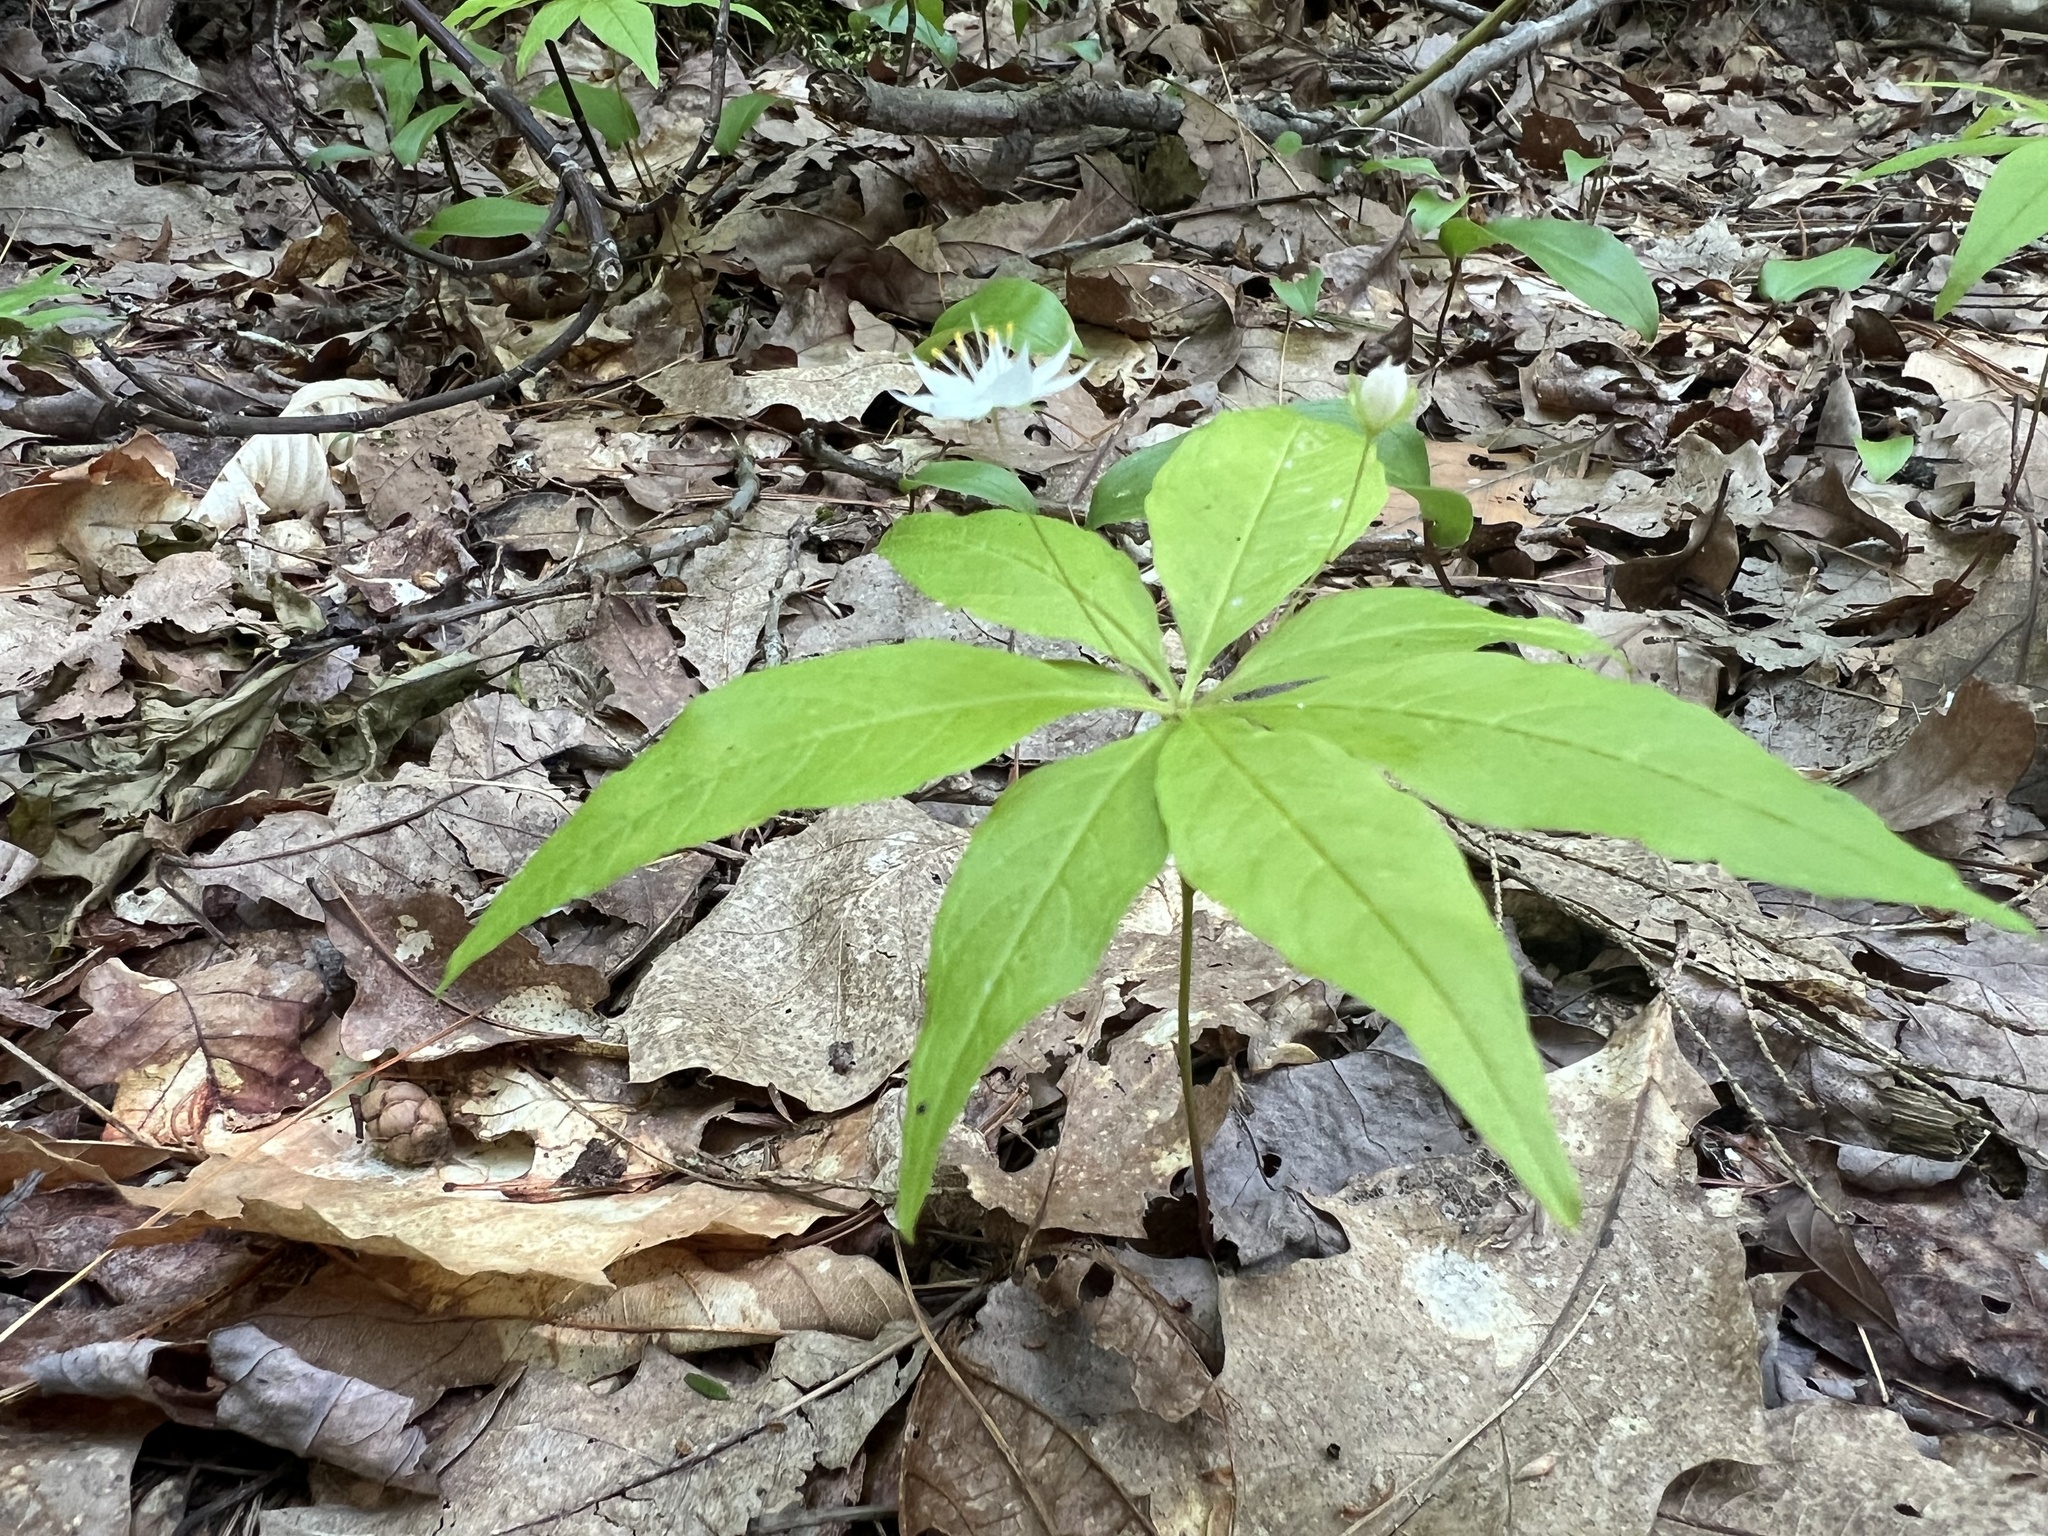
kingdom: Plantae
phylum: Tracheophyta
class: Magnoliopsida
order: Ericales
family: Primulaceae
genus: Lysimachia
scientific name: Lysimachia borealis
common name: American starflower
